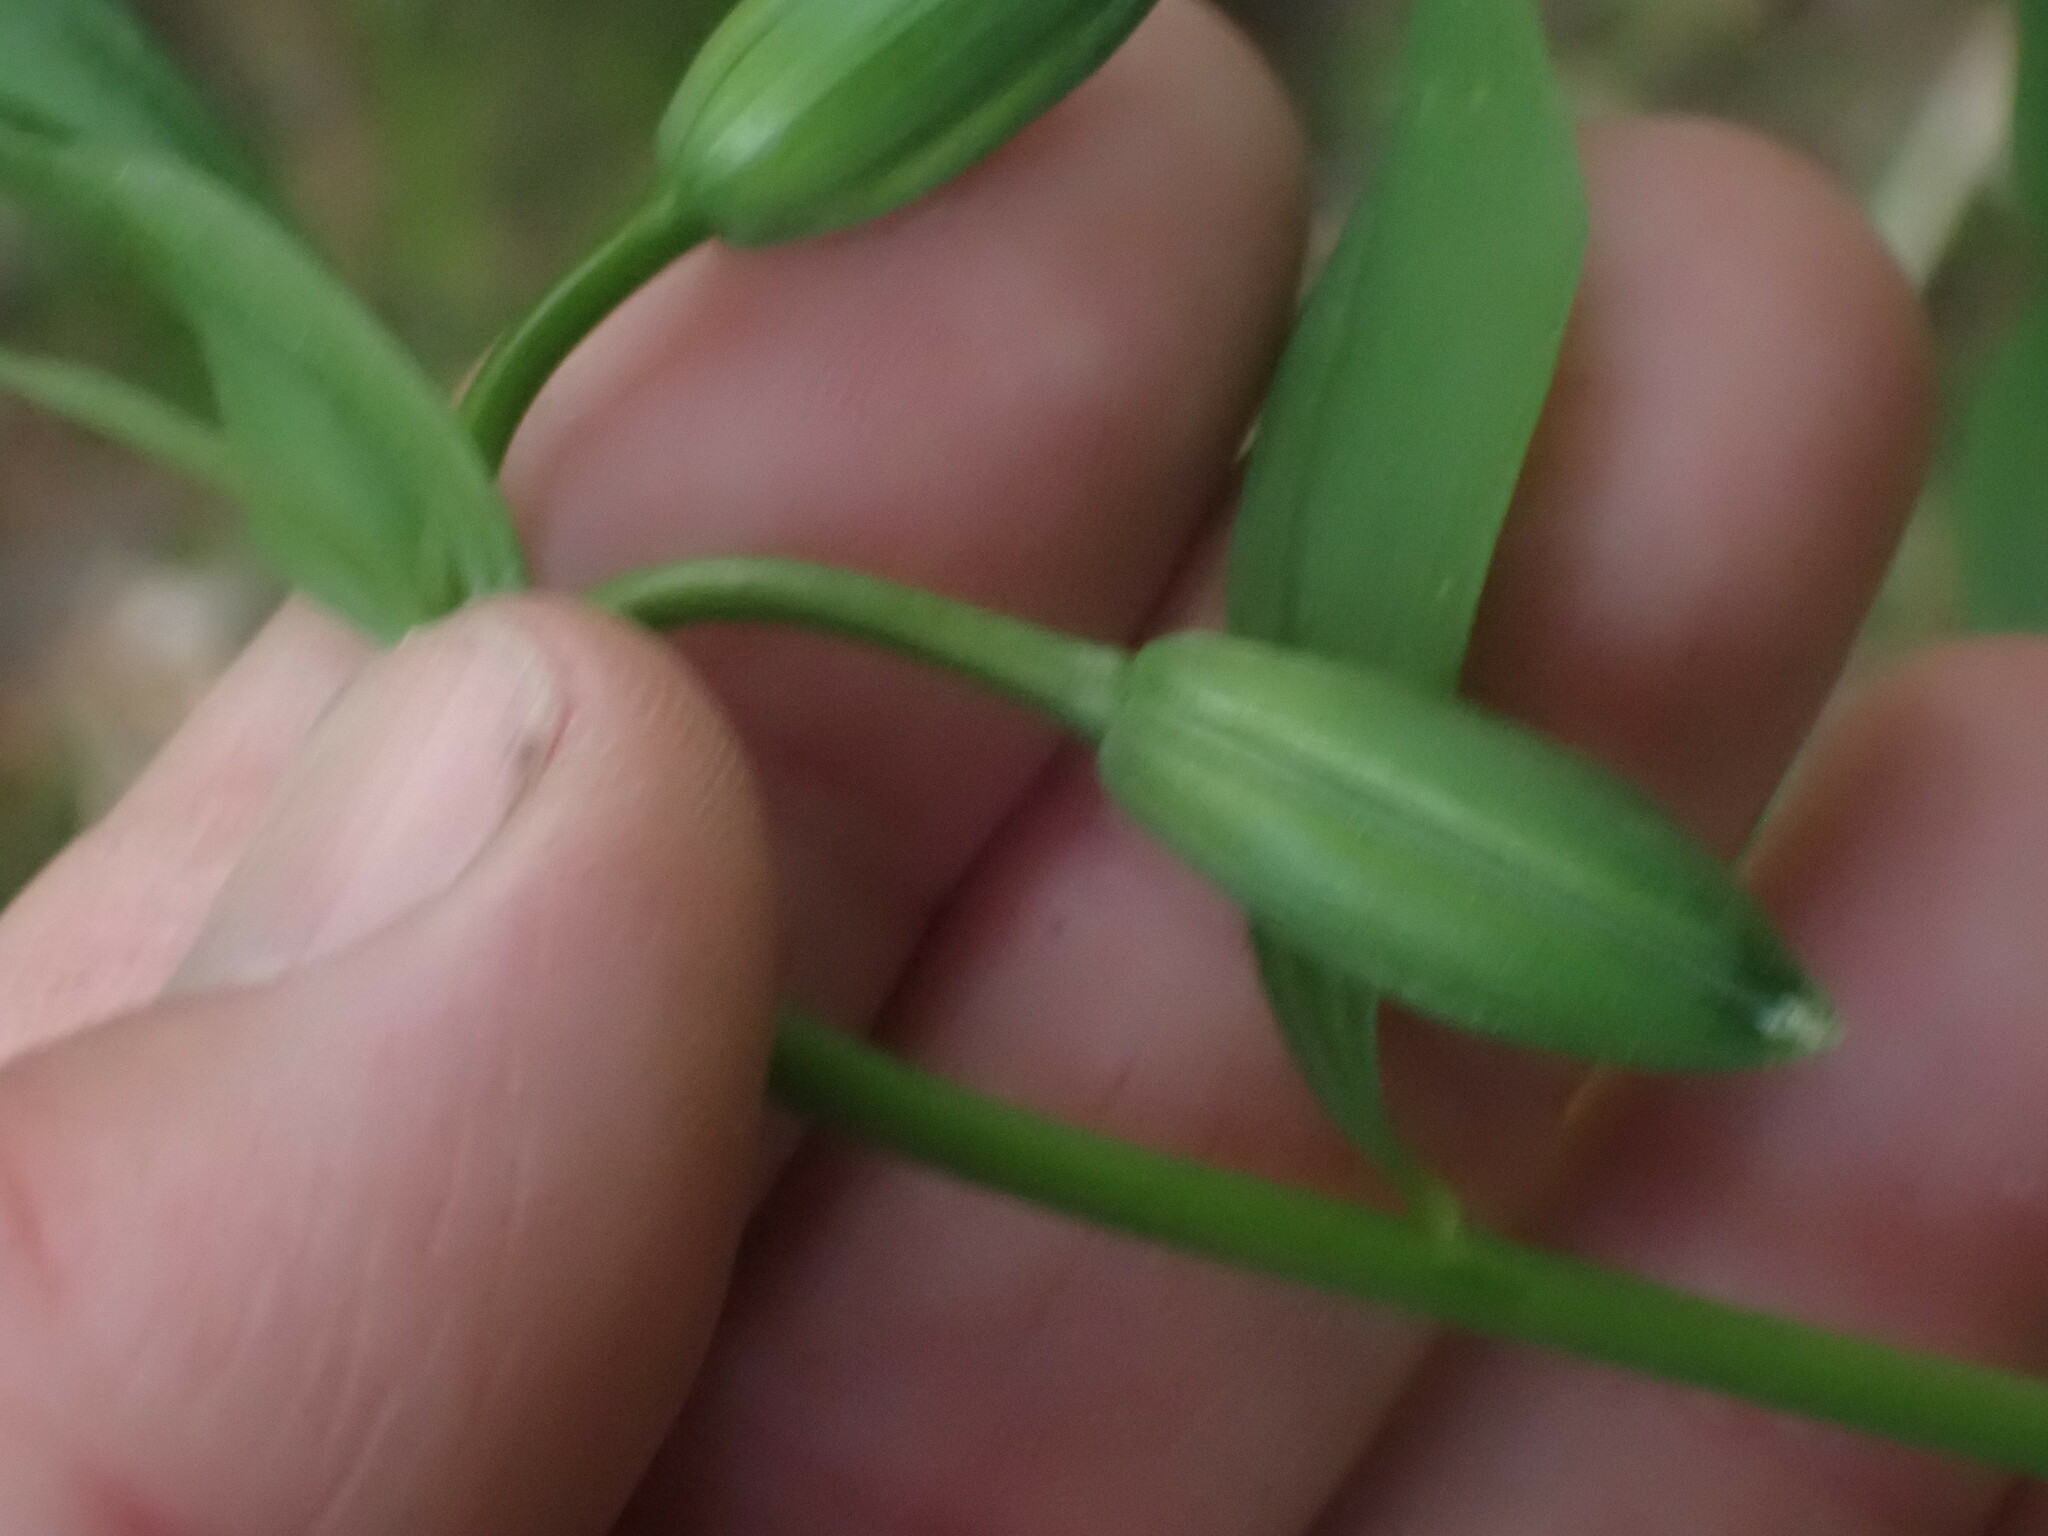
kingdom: Plantae
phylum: Tracheophyta
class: Liliopsida
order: Liliales
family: Liliaceae
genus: Lilium
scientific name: Lilium columbianum
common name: Columbia lily
